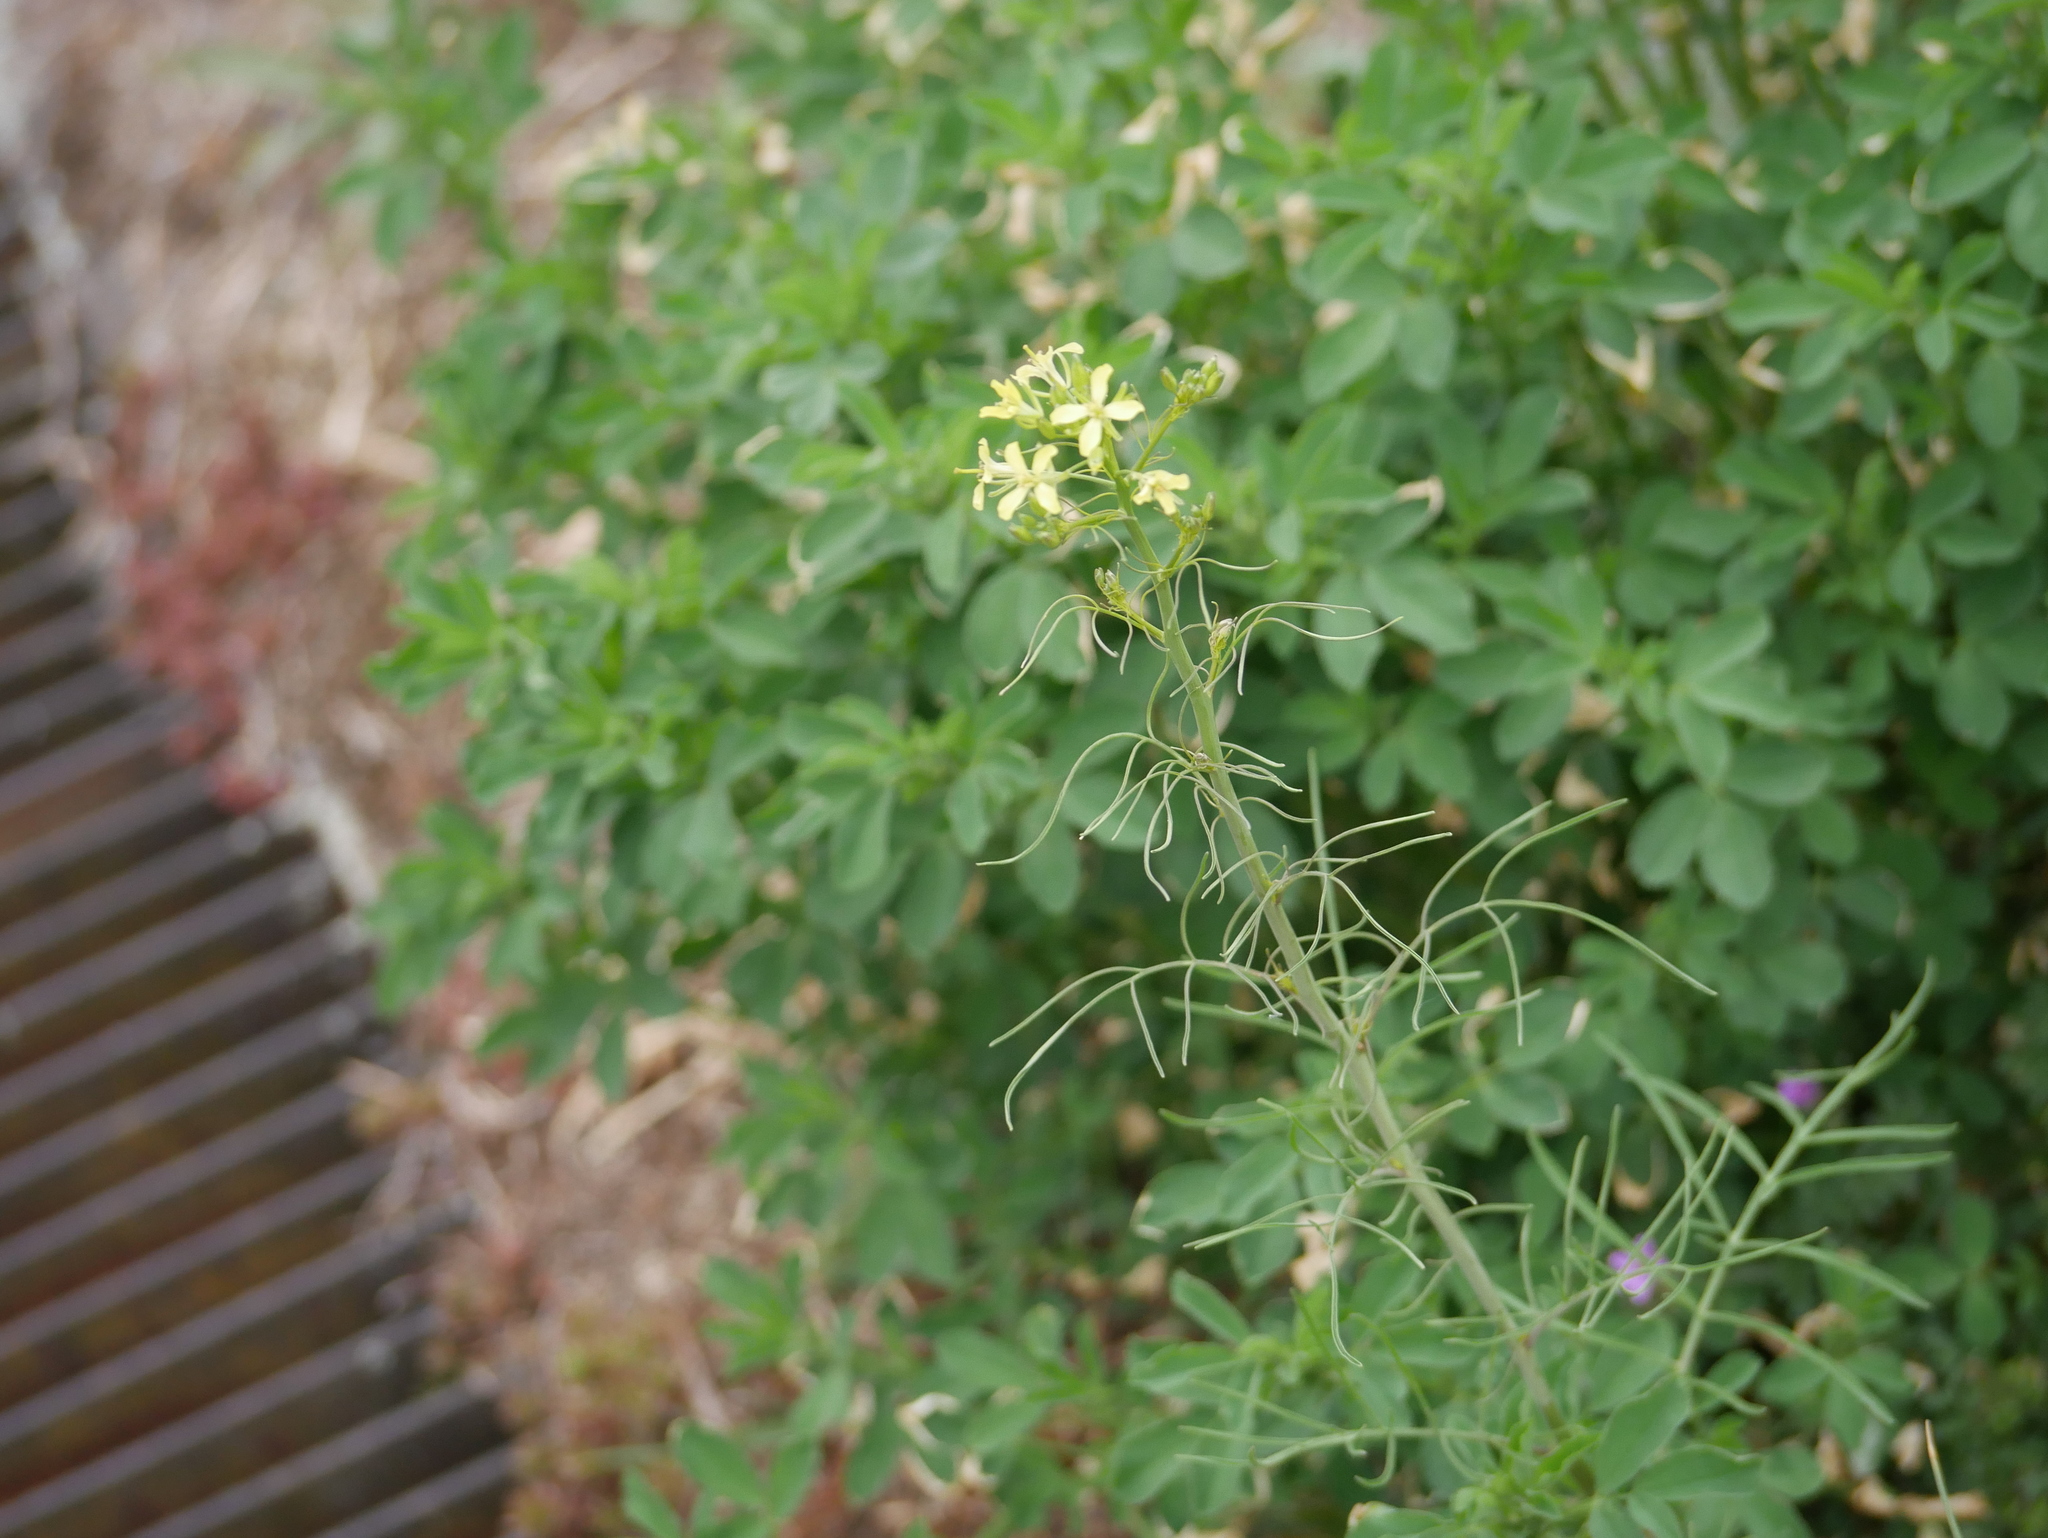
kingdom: Plantae
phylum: Tracheophyta
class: Magnoliopsida
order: Brassicales
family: Brassicaceae
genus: Sisymbrium
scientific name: Sisymbrium altissimum
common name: Tall rocket
